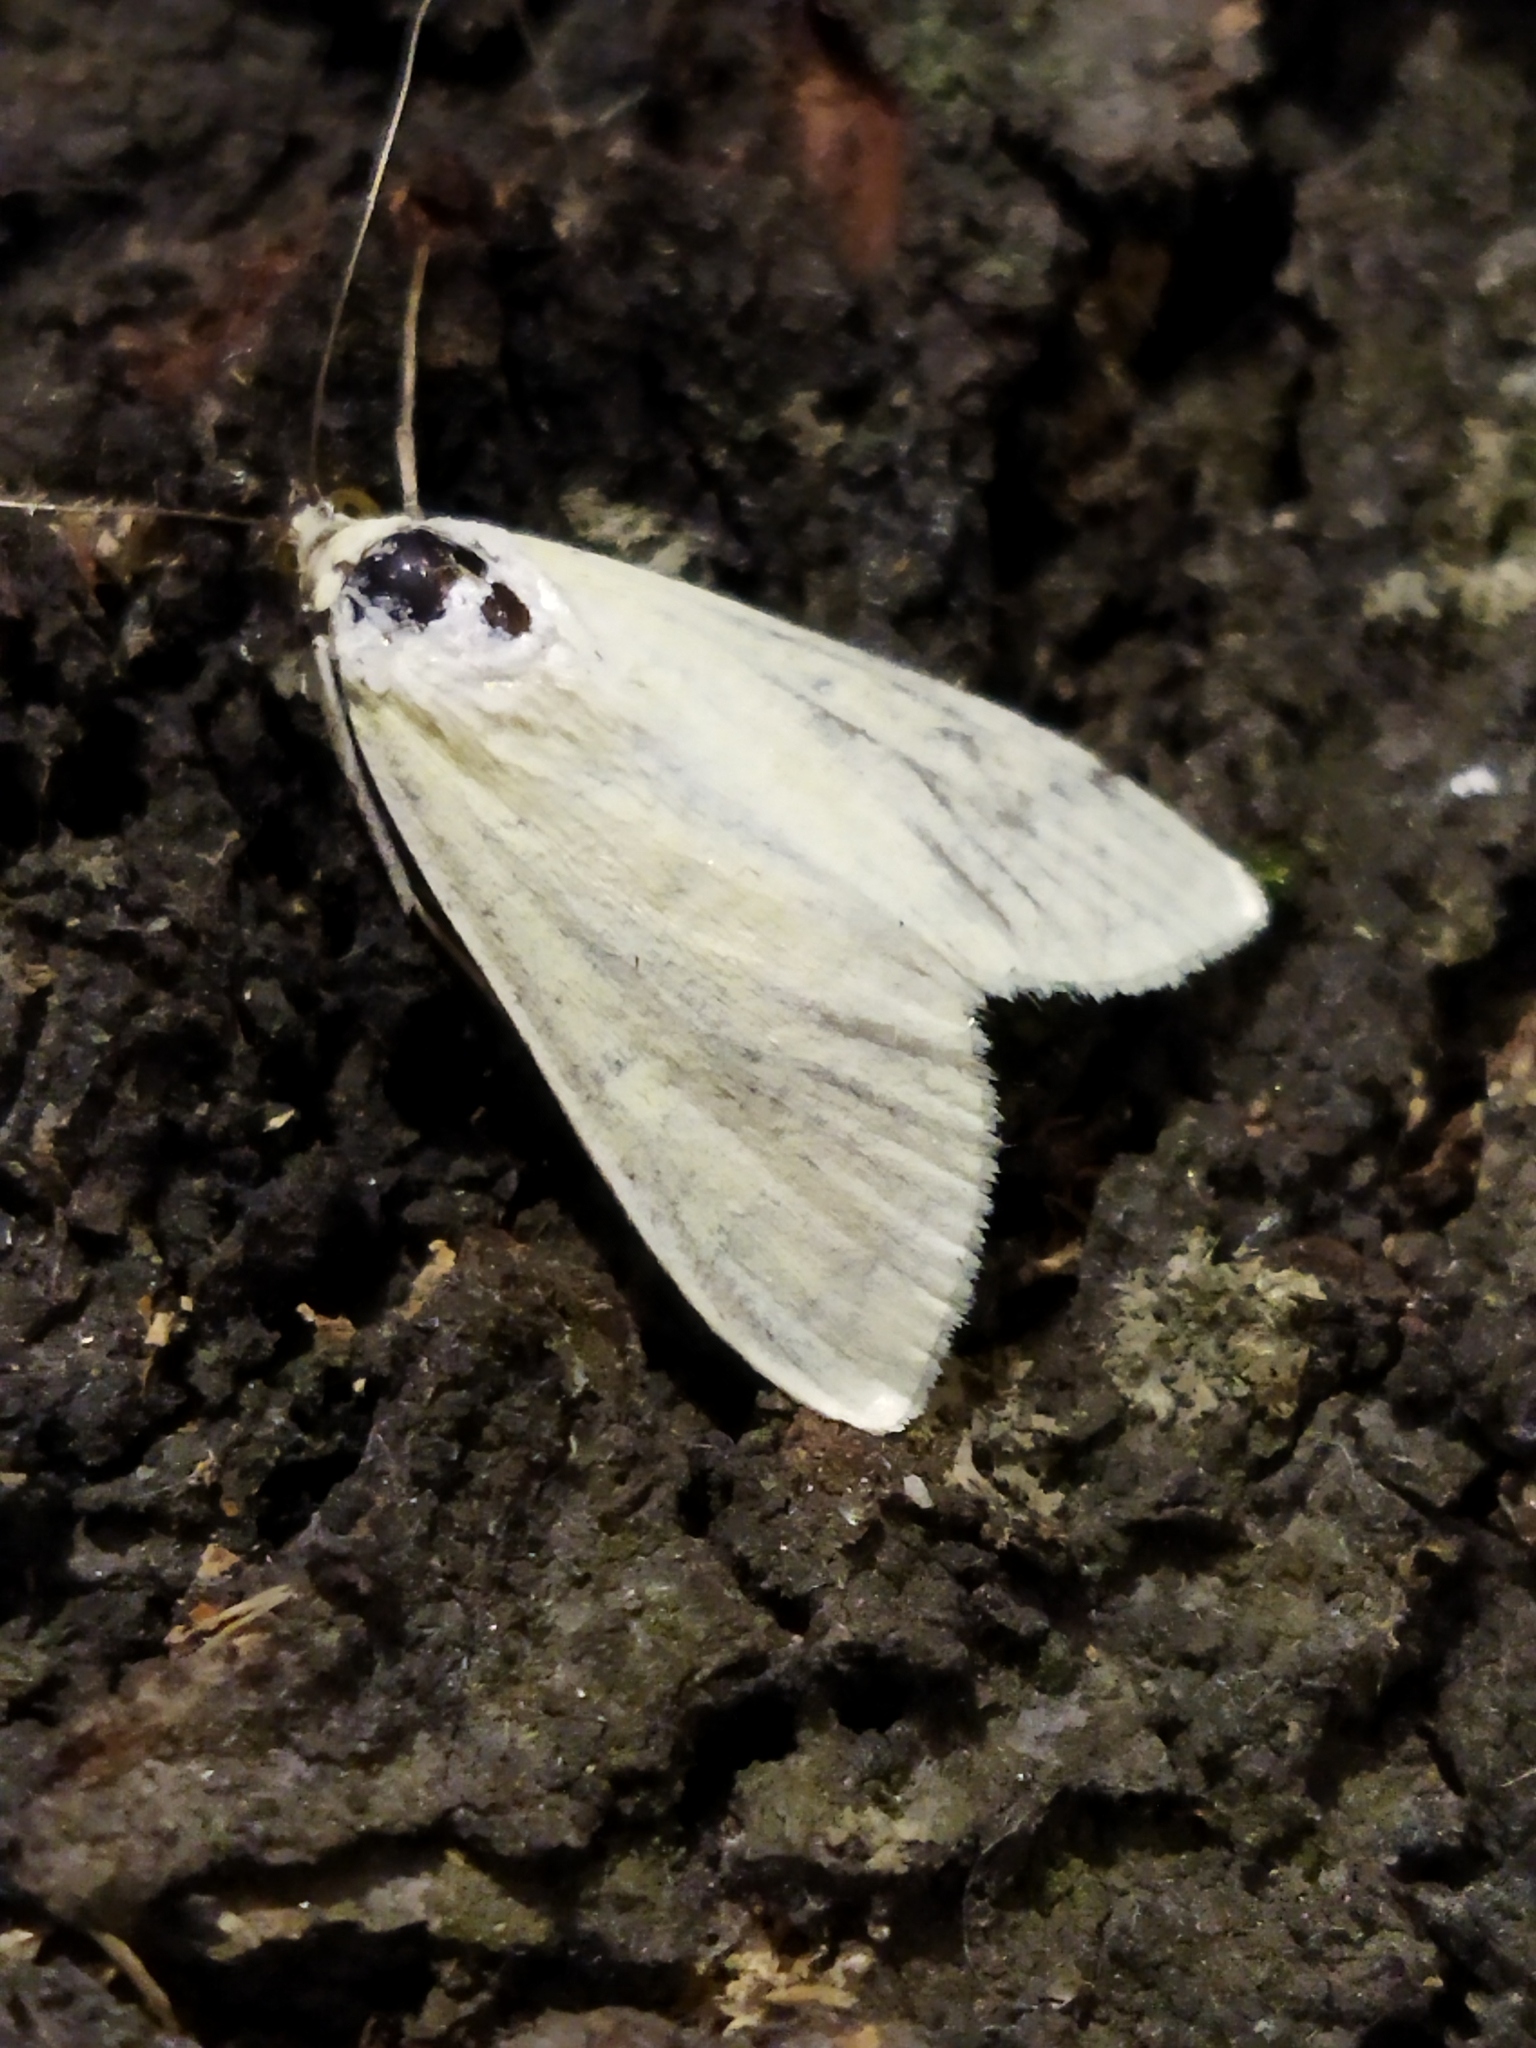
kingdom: Animalia
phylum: Arthropoda
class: Insecta
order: Lepidoptera
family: Crambidae
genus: Sitochroa
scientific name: Sitochroa palealis
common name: Greenish-yellow sitochroa moth
